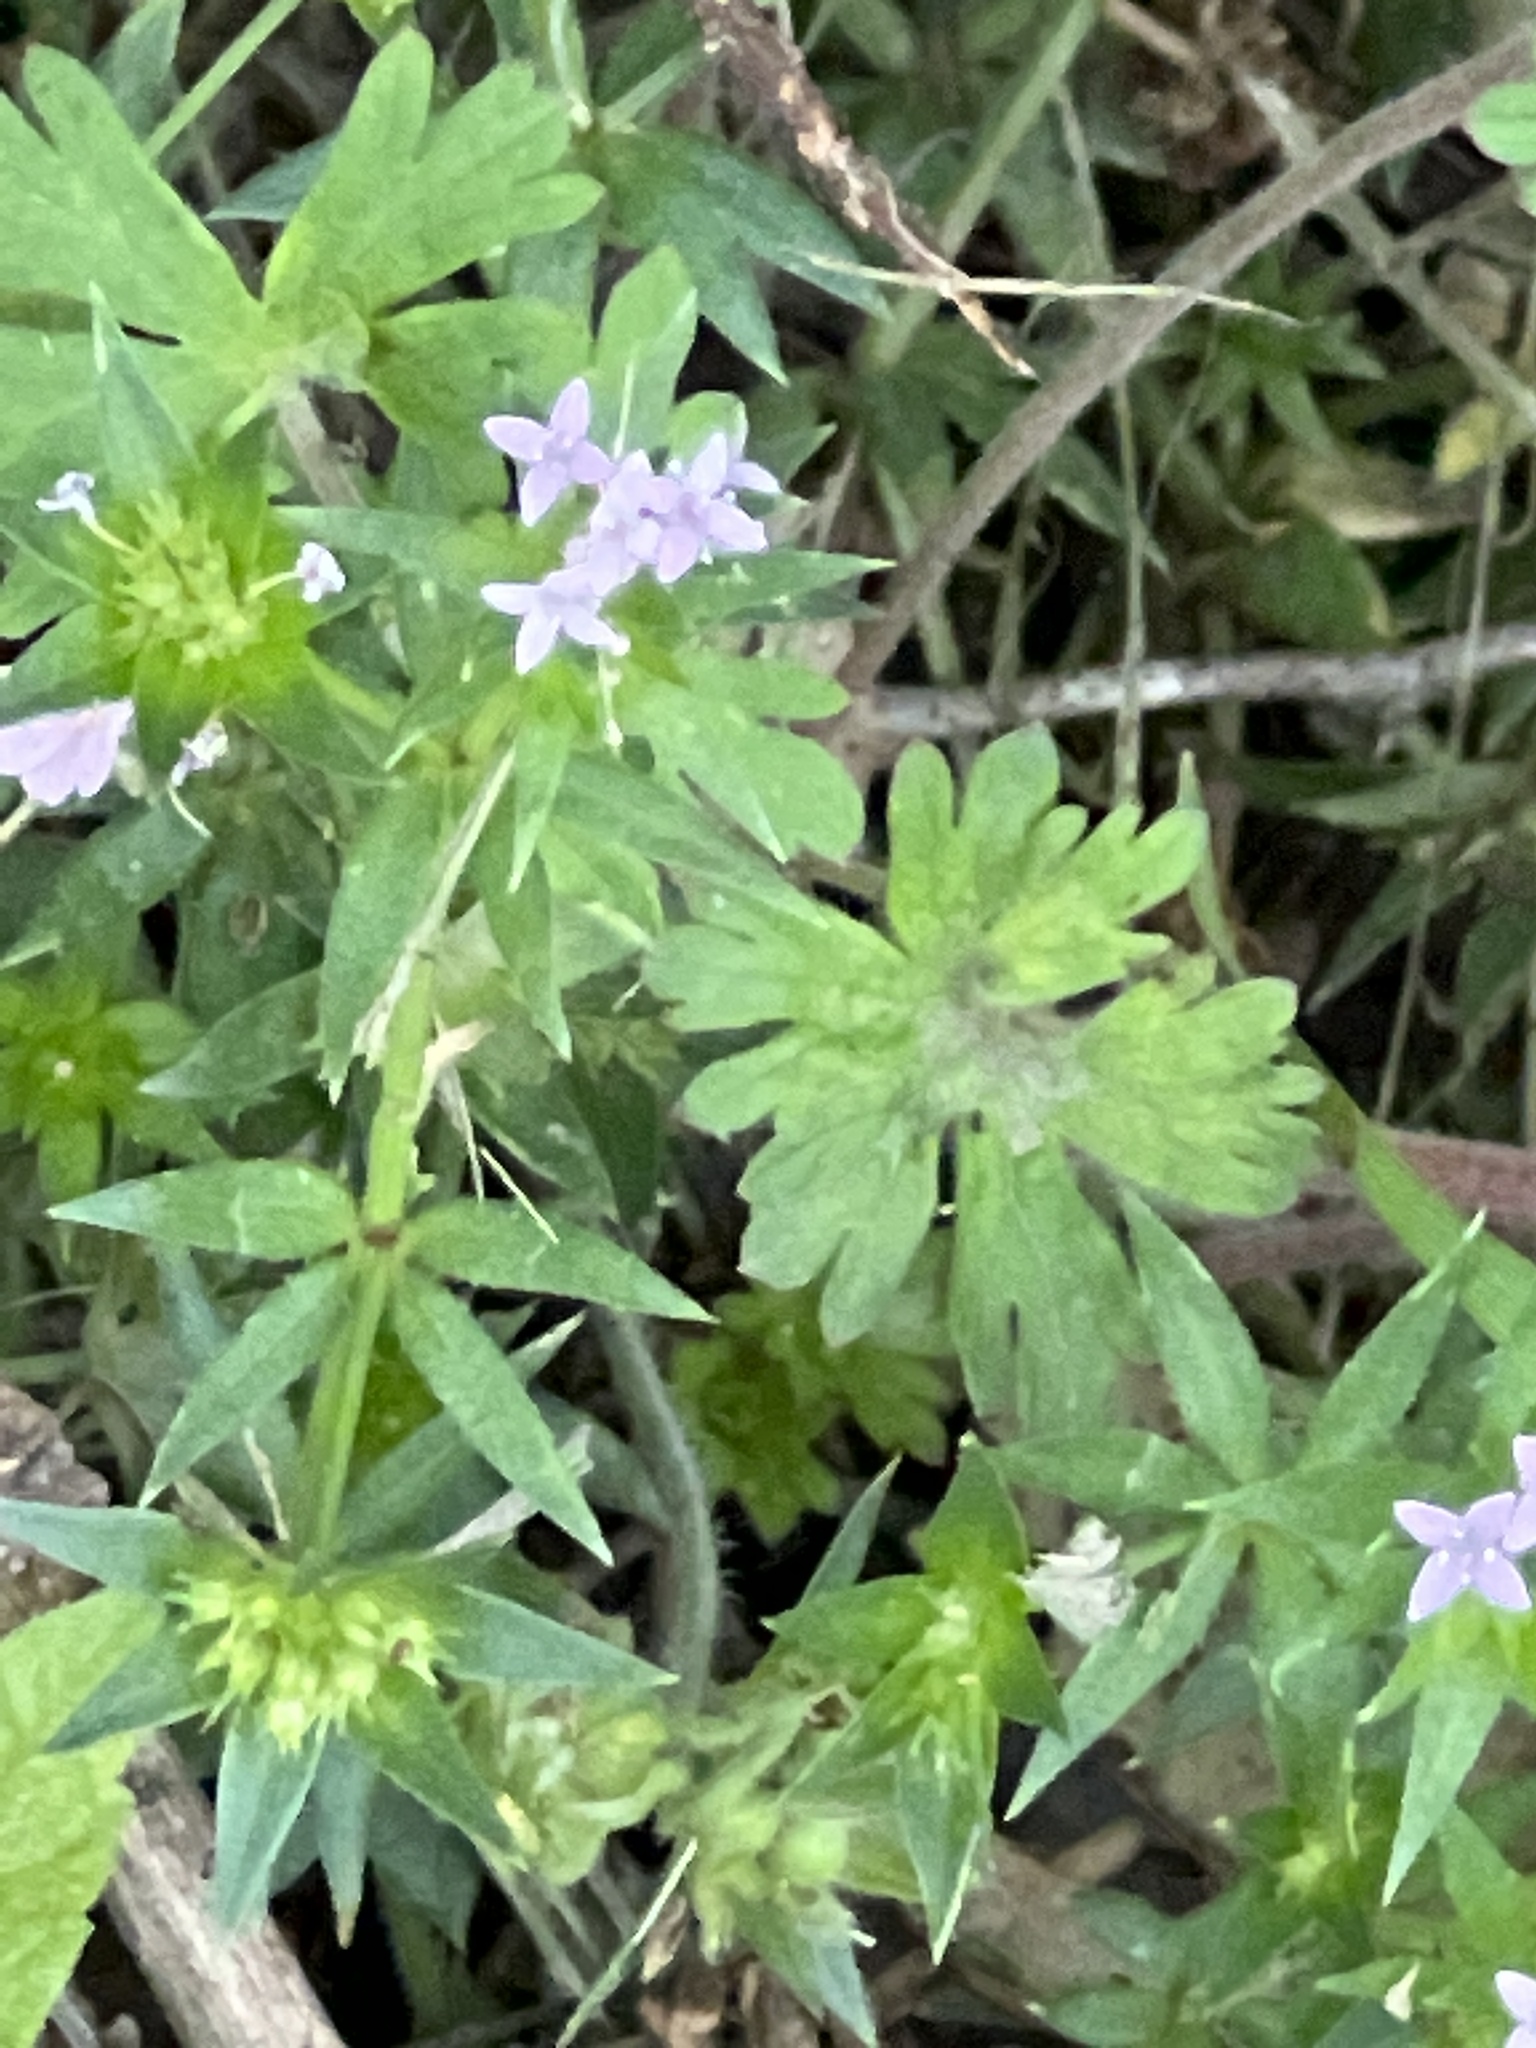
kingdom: Plantae
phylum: Tracheophyta
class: Magnoliopsida
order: Gentianales
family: Rubiaceae
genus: Sherardia
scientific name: Sherardia arvensis
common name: Field madder
